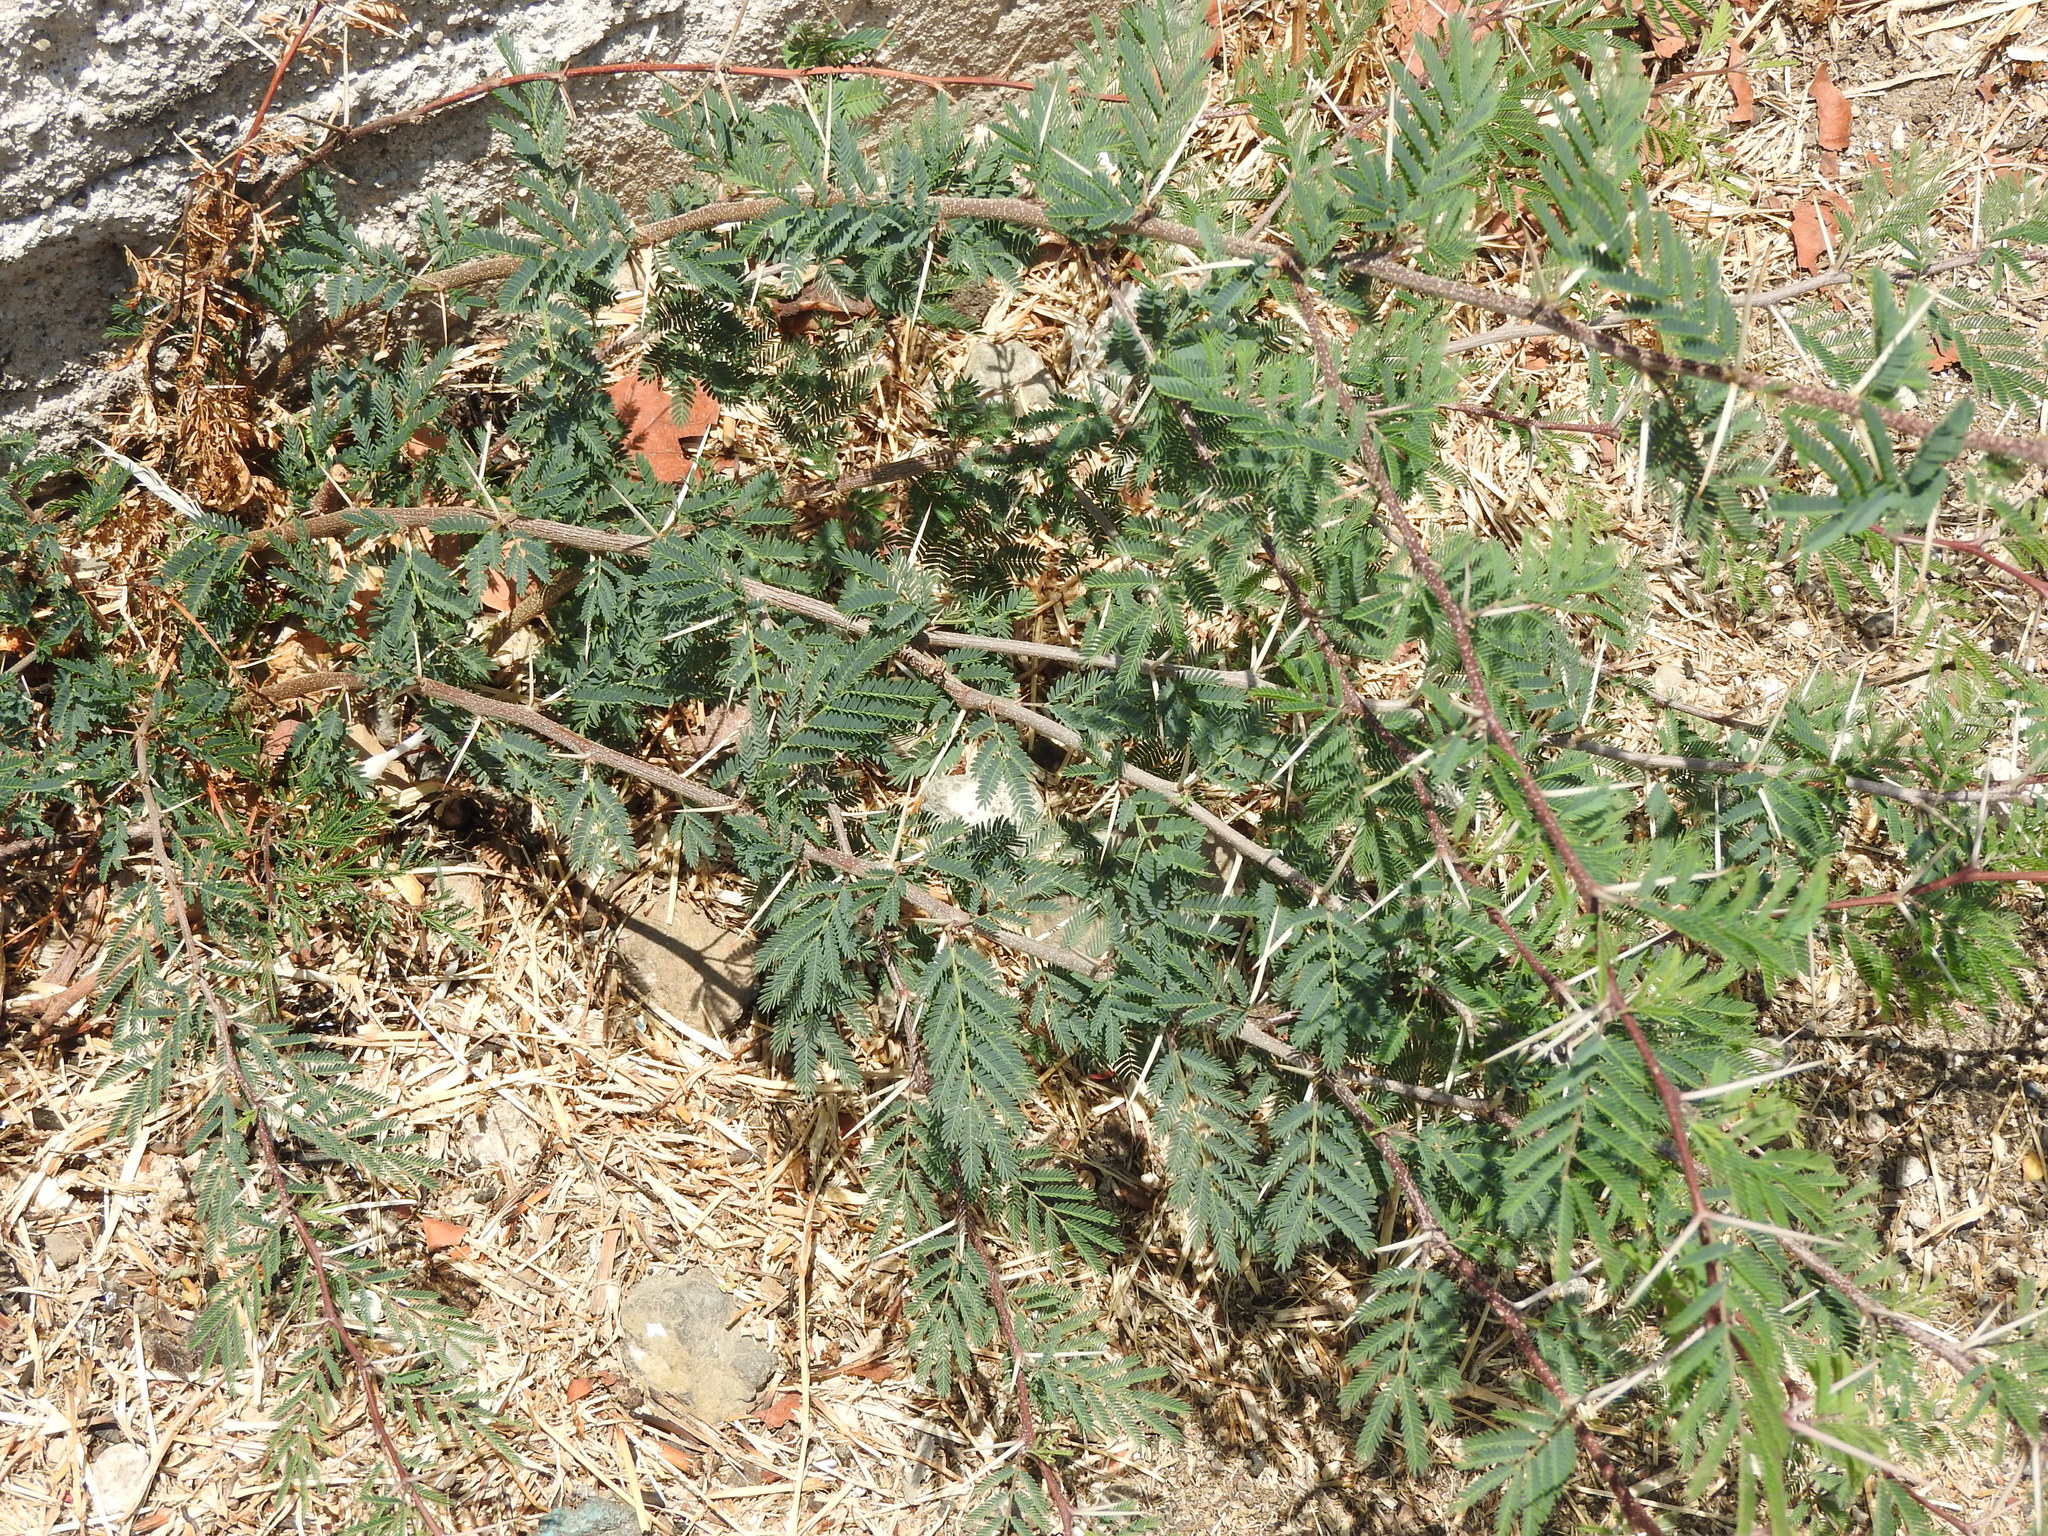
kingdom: Plantae
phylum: Tracheophyta
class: Magnoliopsida
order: Fabales
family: Fabaceae
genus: Vachellia
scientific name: Vachellia farnesiana
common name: Sweet acacia
